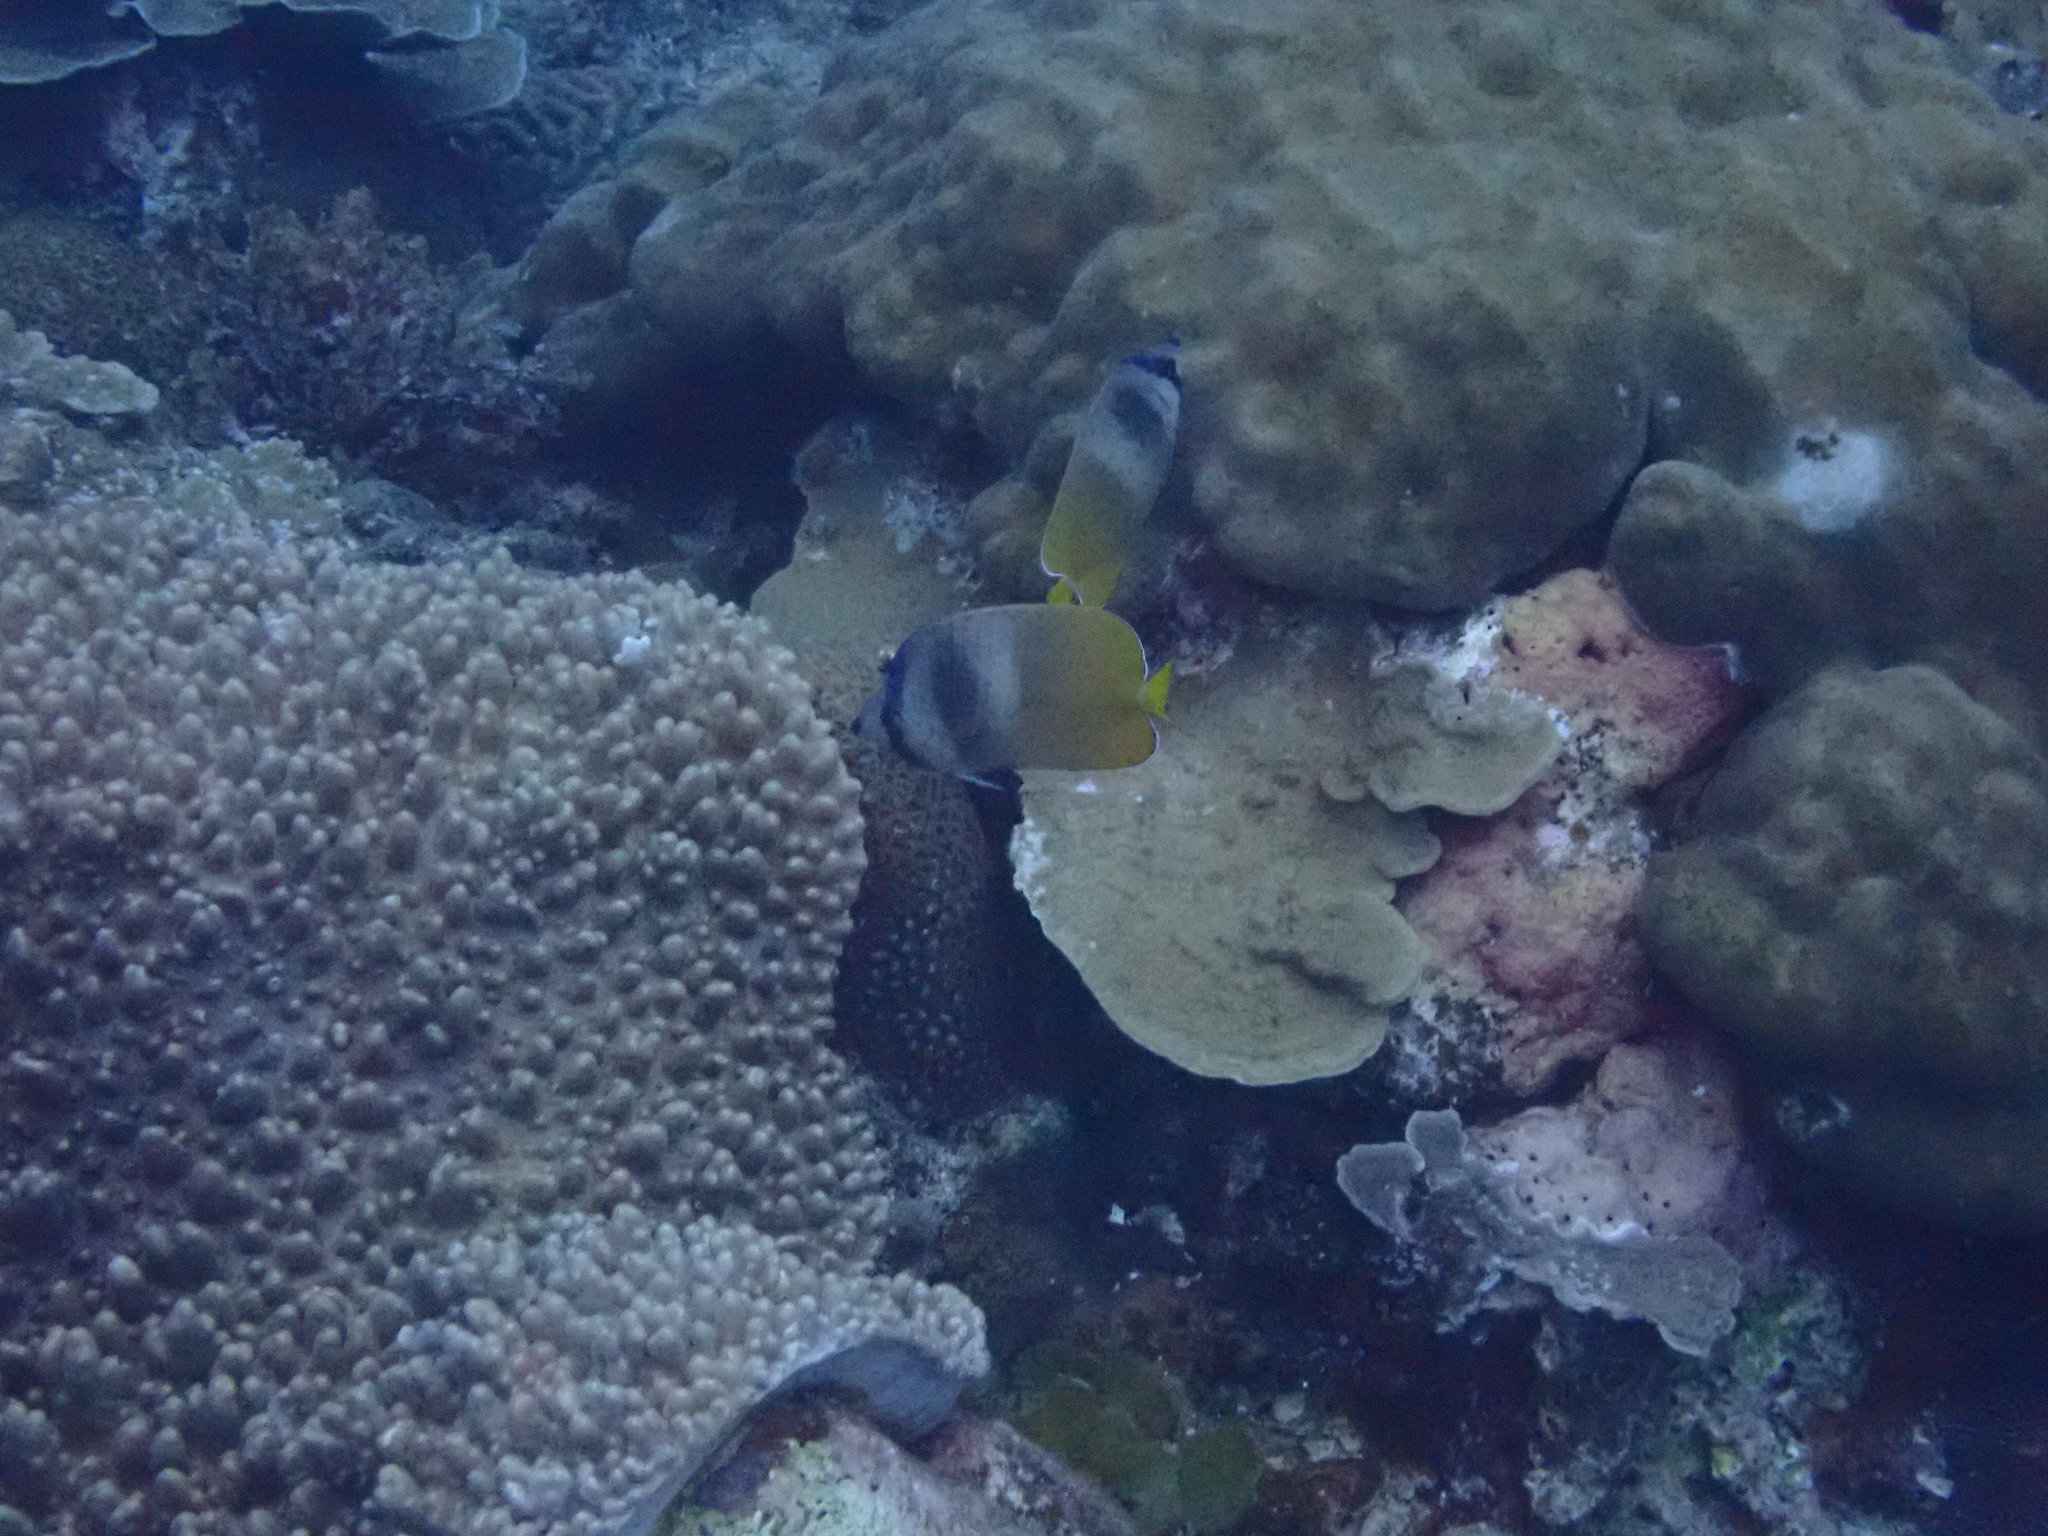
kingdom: Animalia
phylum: Chordata
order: Perciformes
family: Chaetodontidae
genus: Chaetodon
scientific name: Chaetodon kleinii
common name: Klein's butterflyfish
